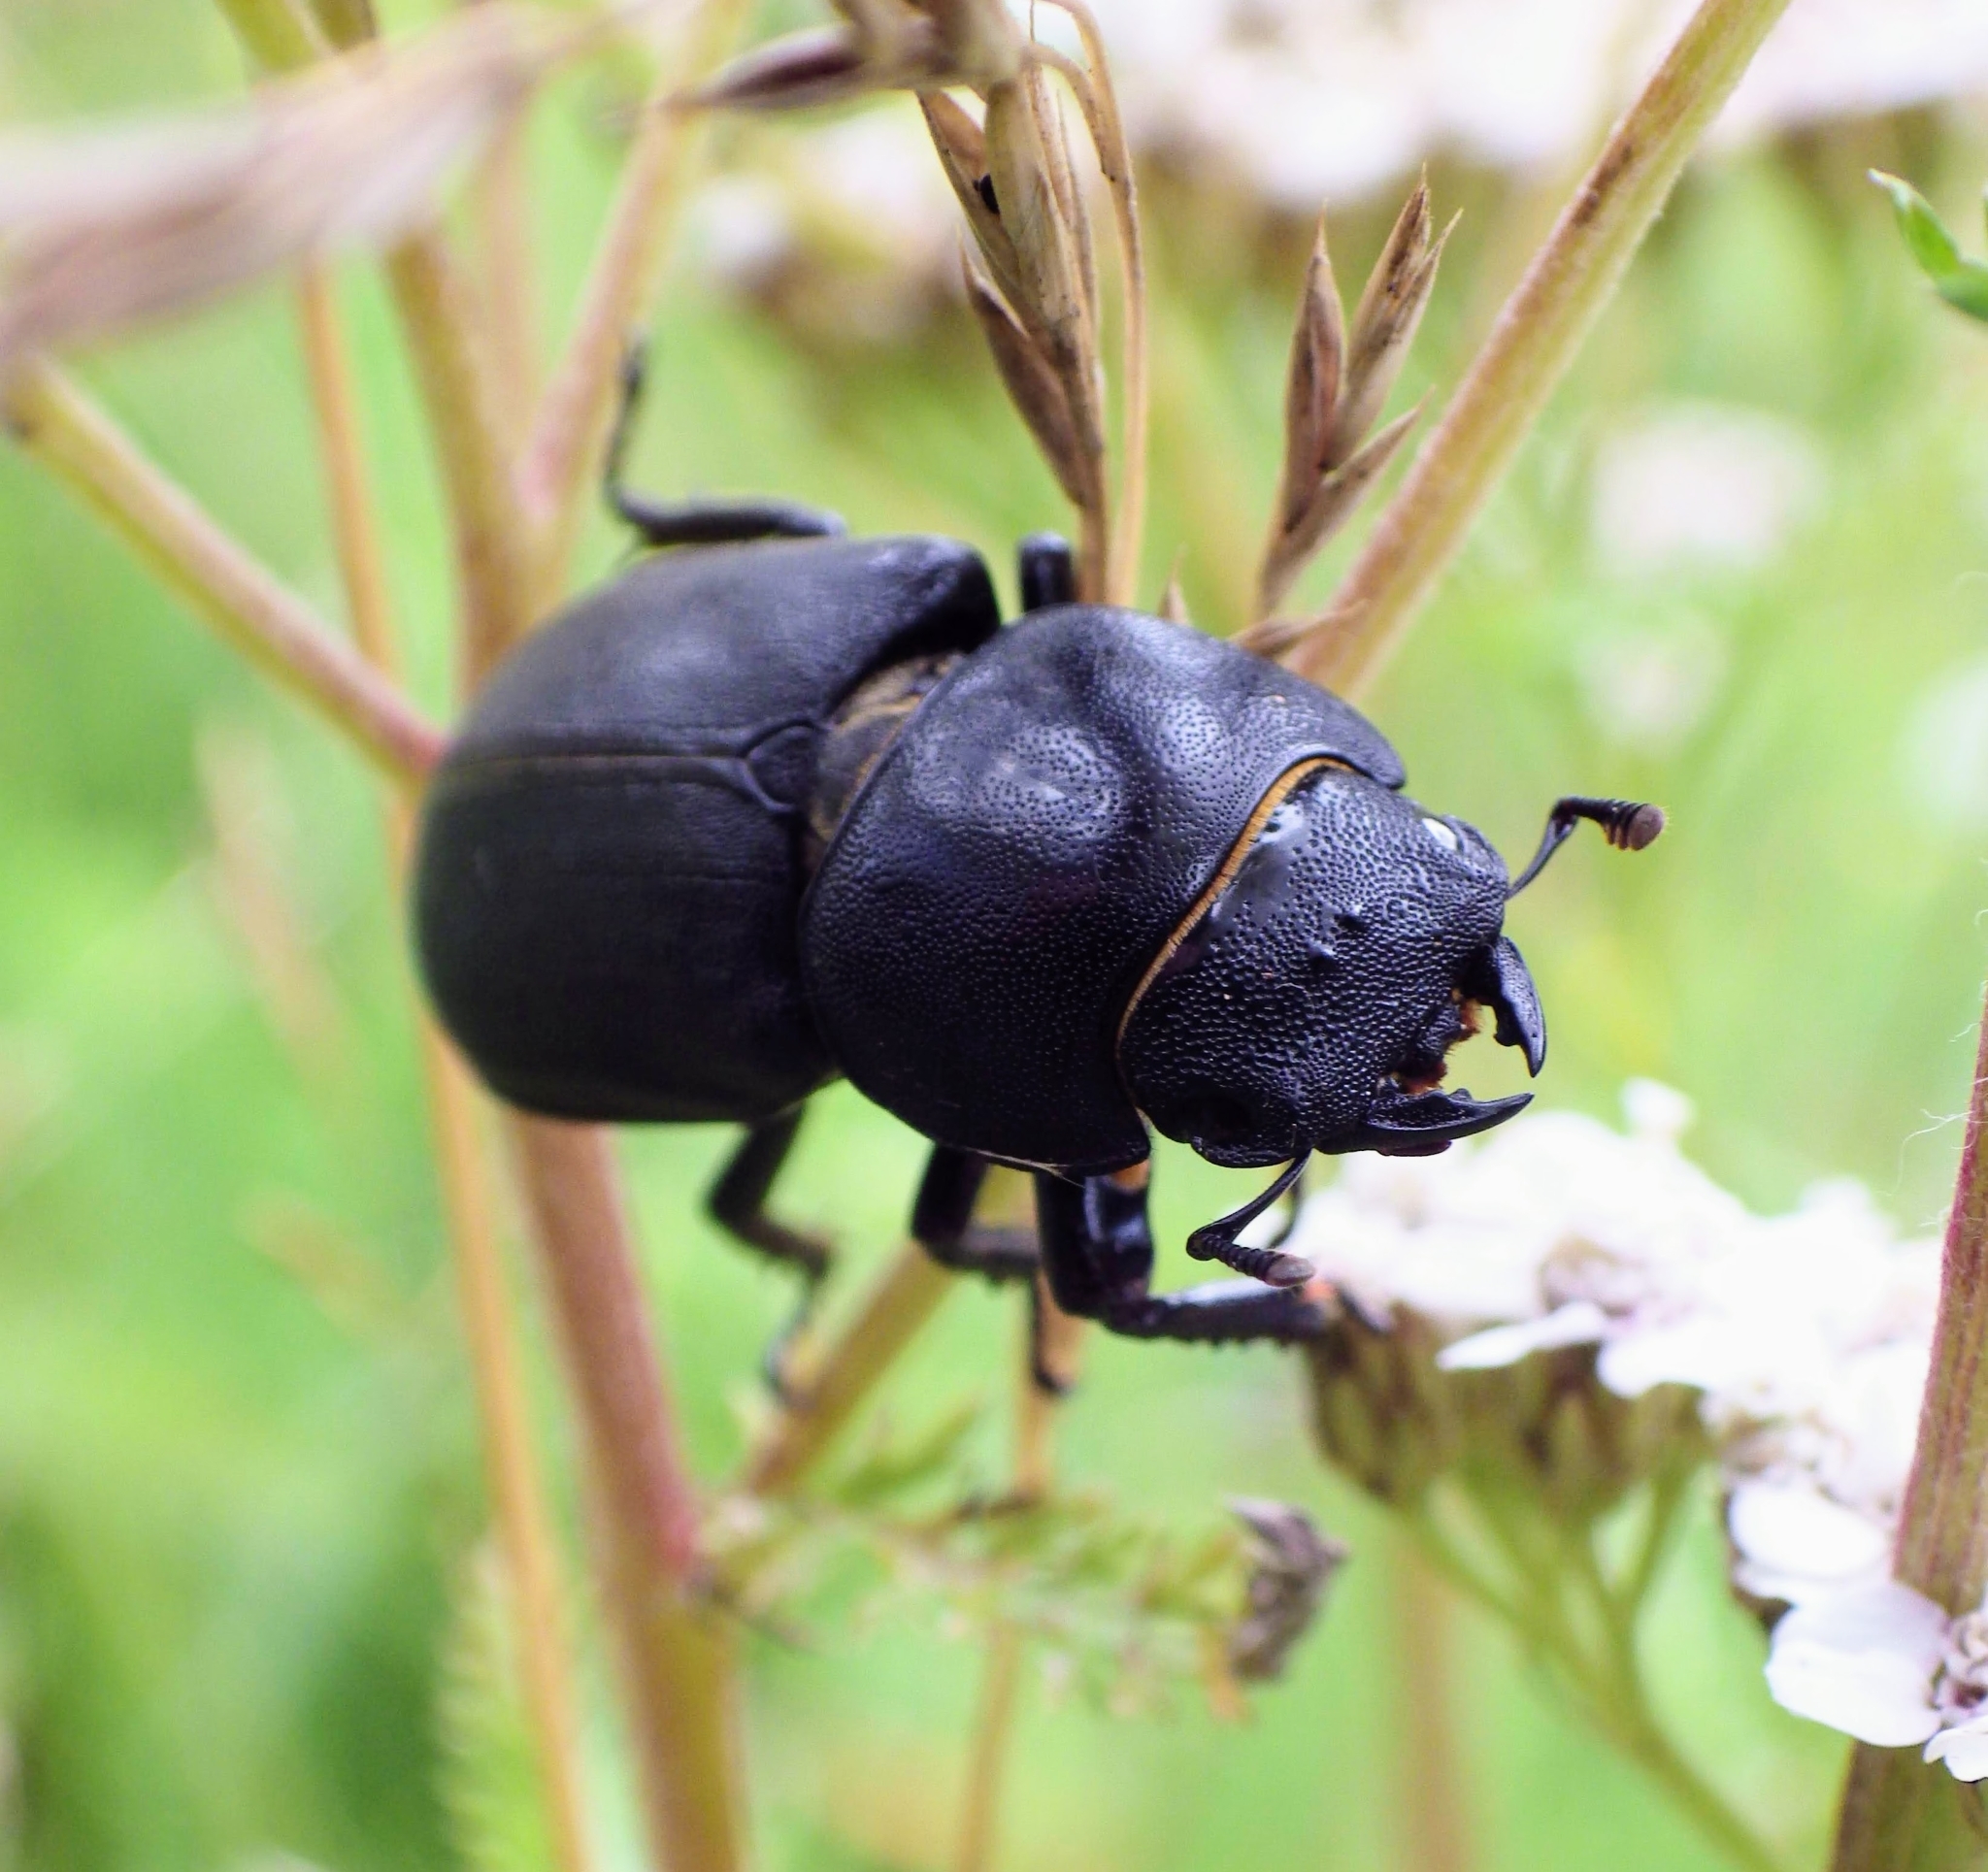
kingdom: Animalia
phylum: Arthropoda
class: Insecta
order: Coleoptera
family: Lucanidae
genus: Dorcus
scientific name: Dorcus parallelipipedus
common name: Lesser stag beetle
